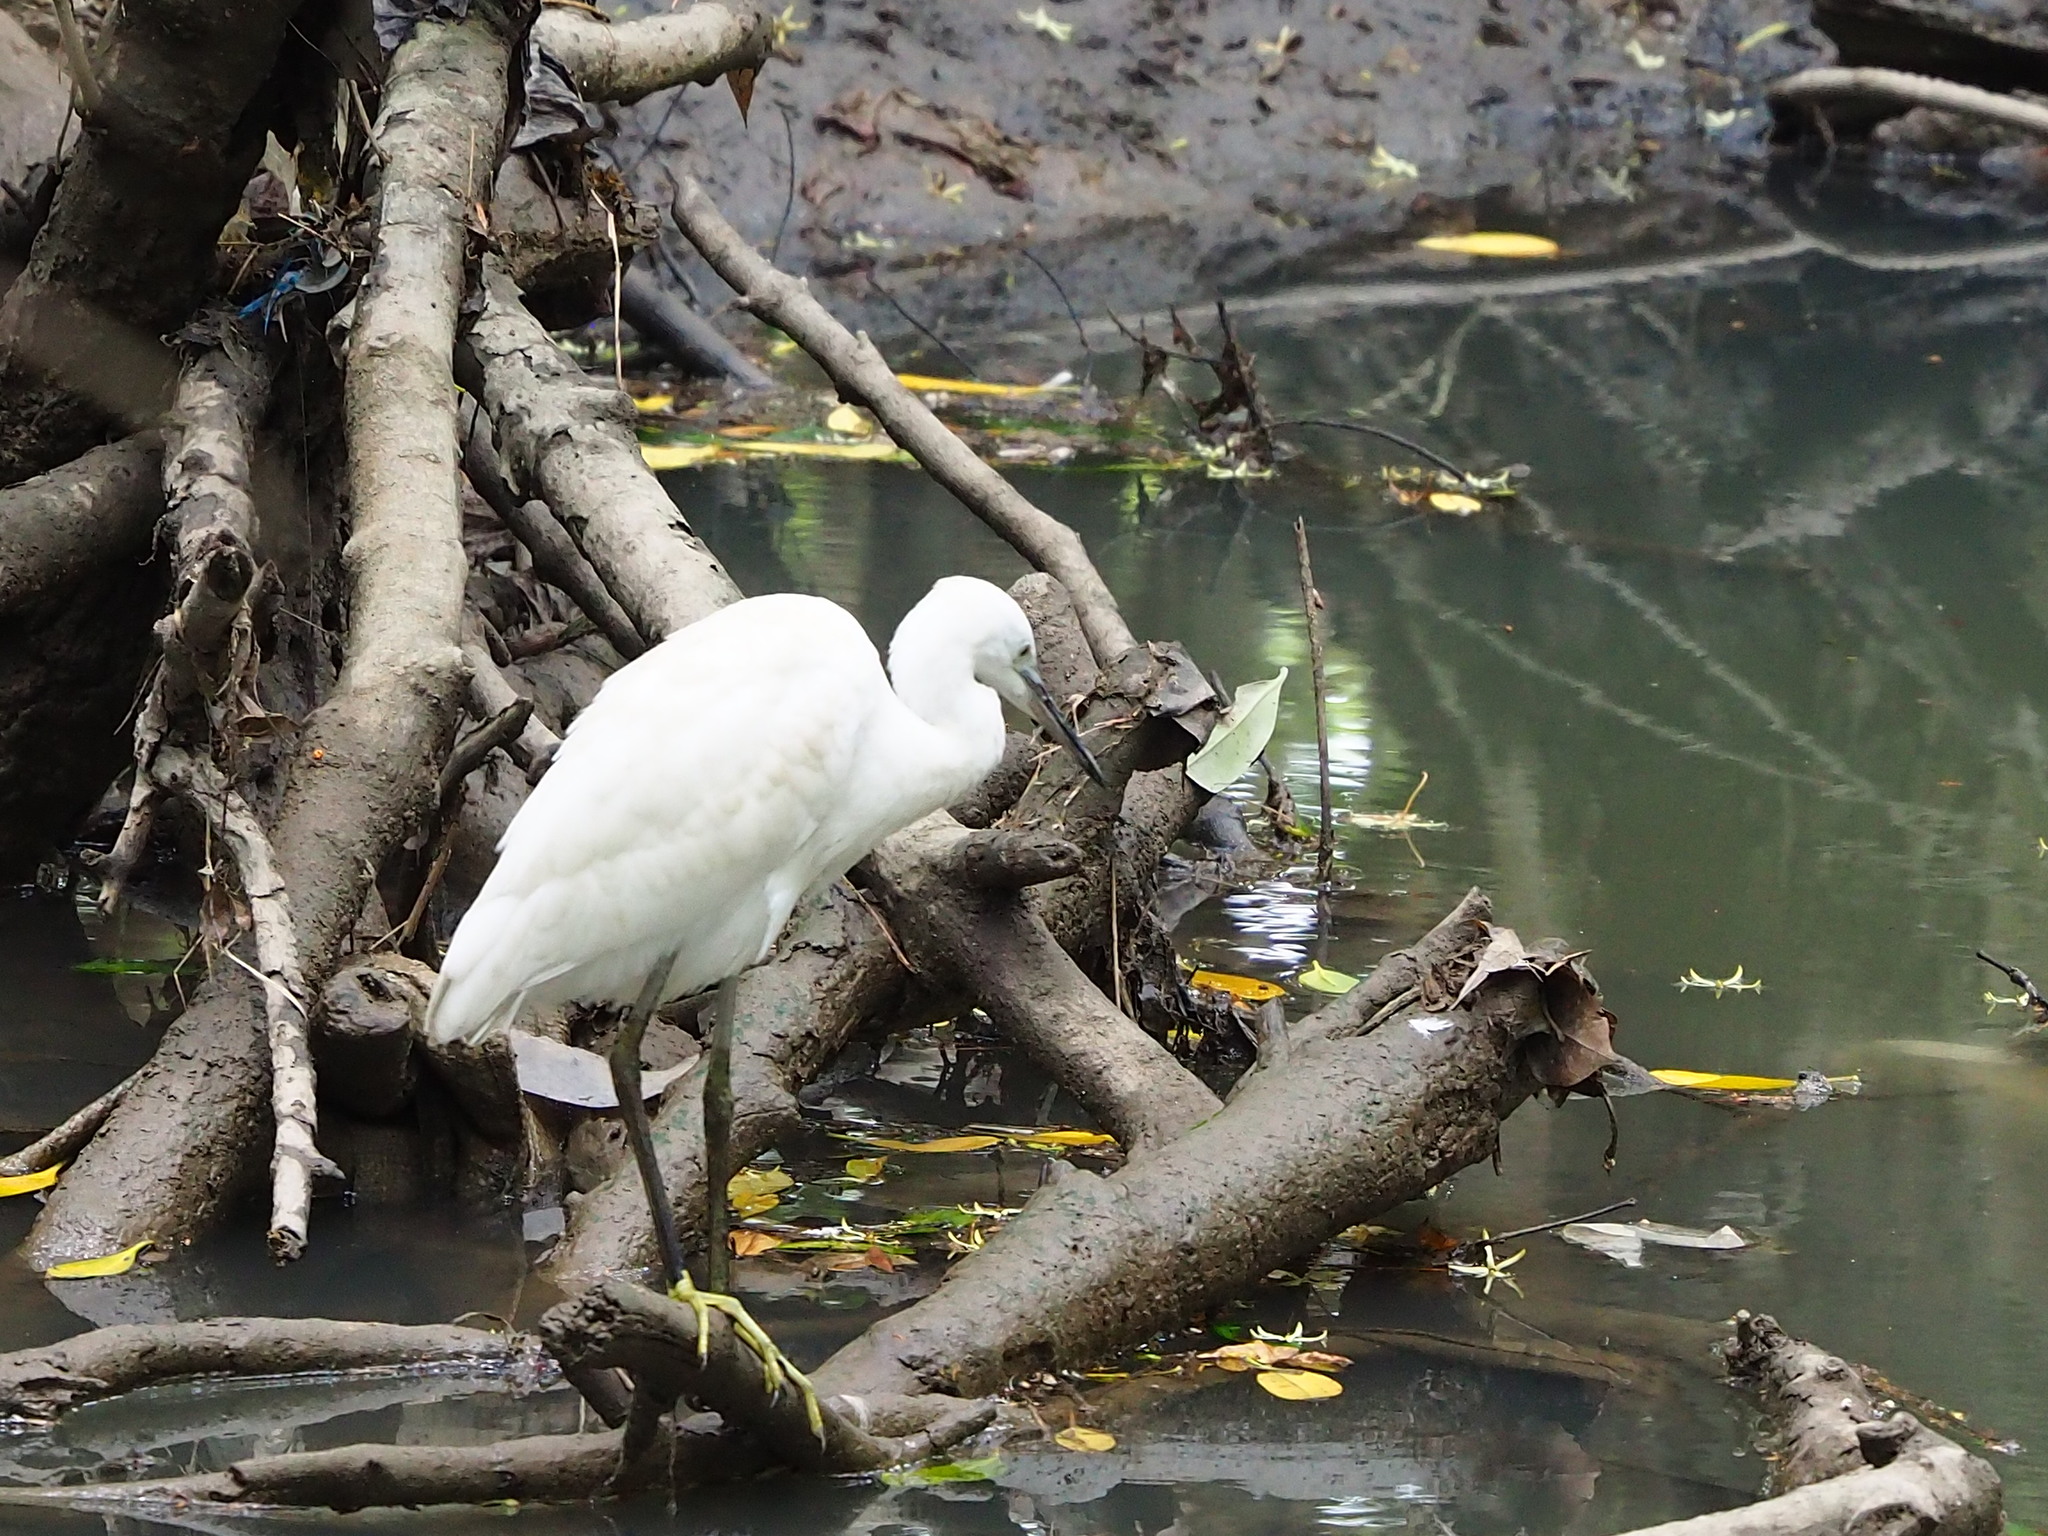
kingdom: Animalia
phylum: Chordata
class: Aves
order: Pelecaniformes
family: Ardeidae
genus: Egretta
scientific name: Egretta garzetta
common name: Little egret
